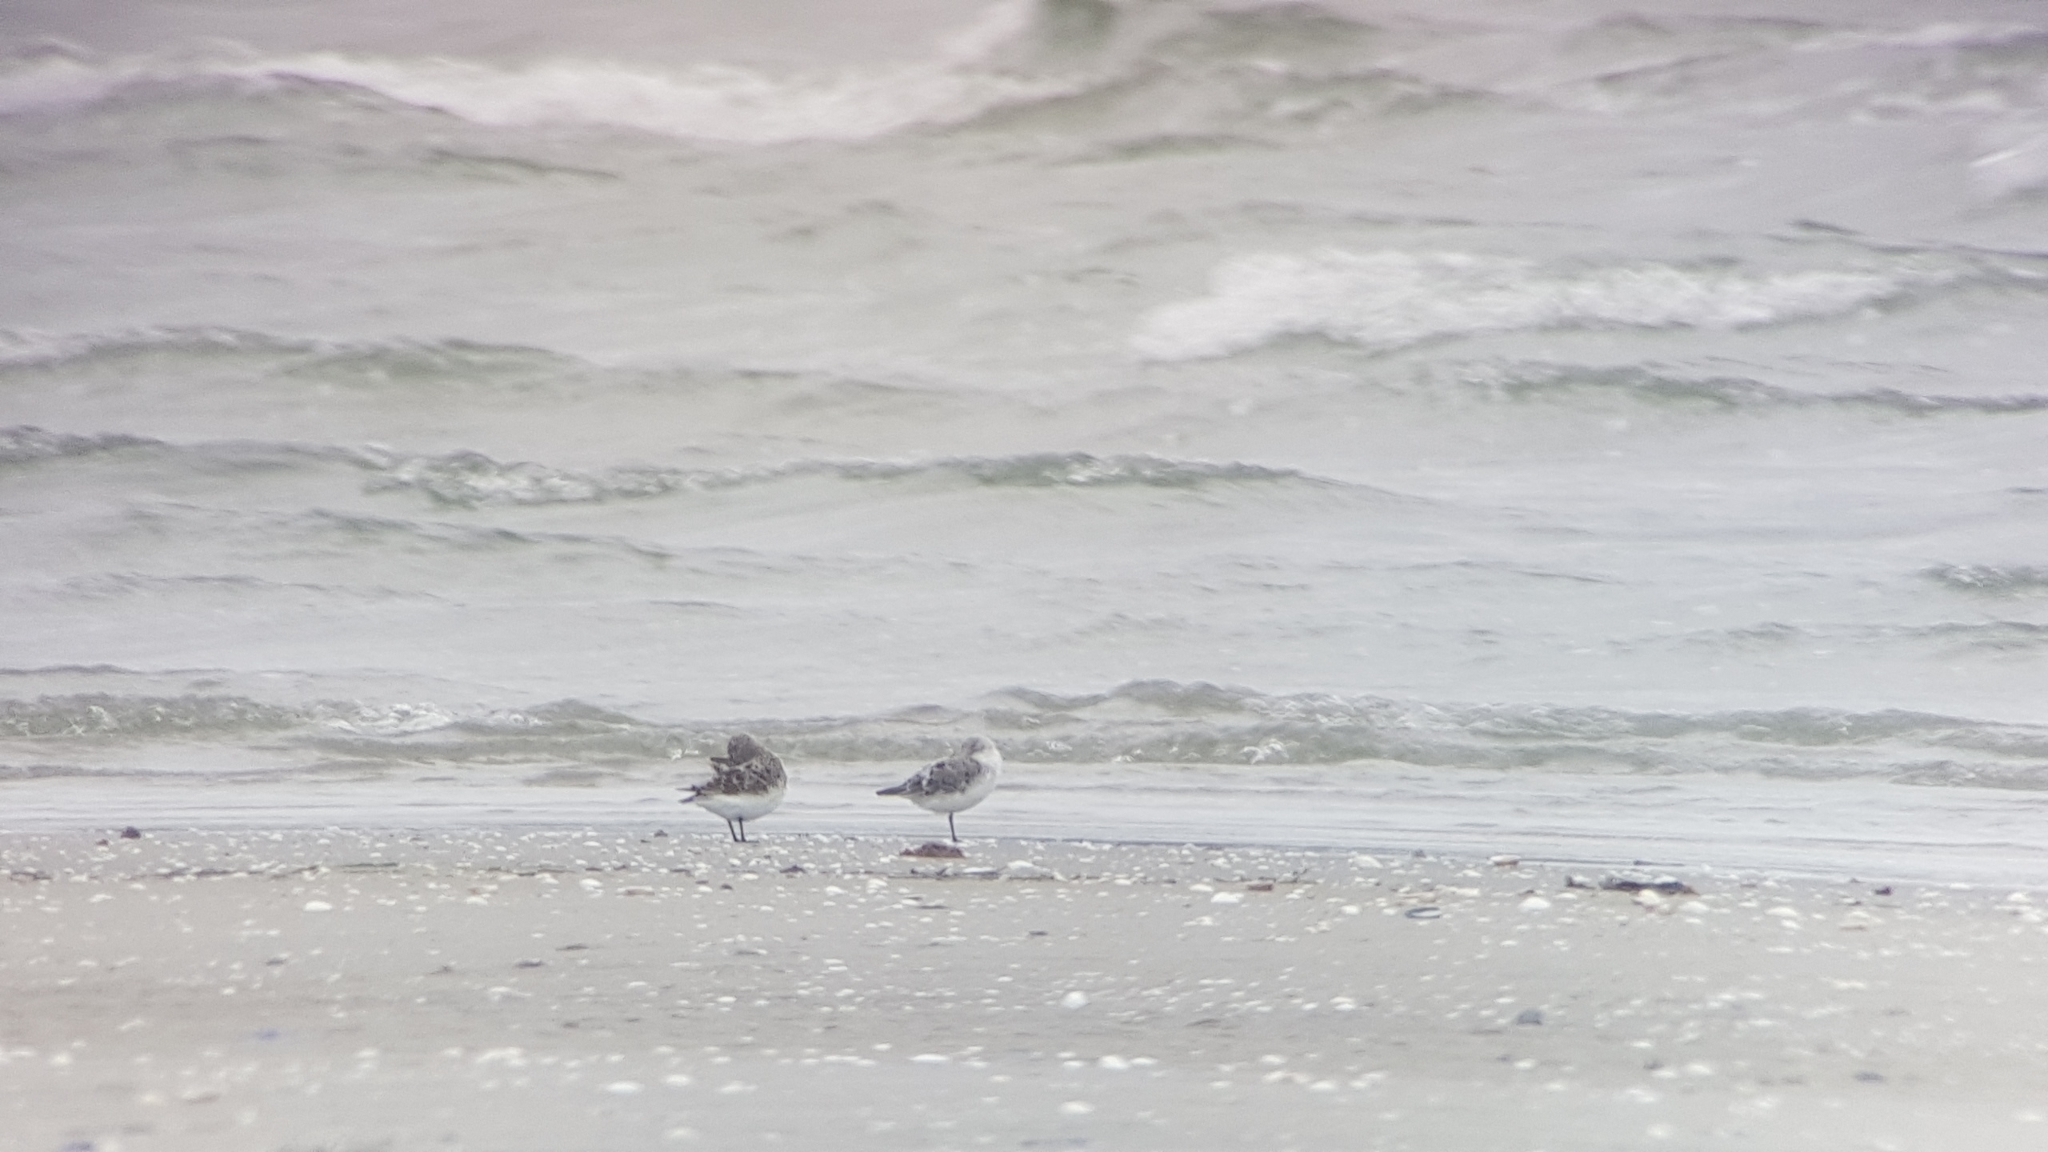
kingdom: Animalia
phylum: Chordata
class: Aves
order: Charadriiformes
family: Scolopacidae
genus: Calidris
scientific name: Calidris alba
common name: Sanderling
